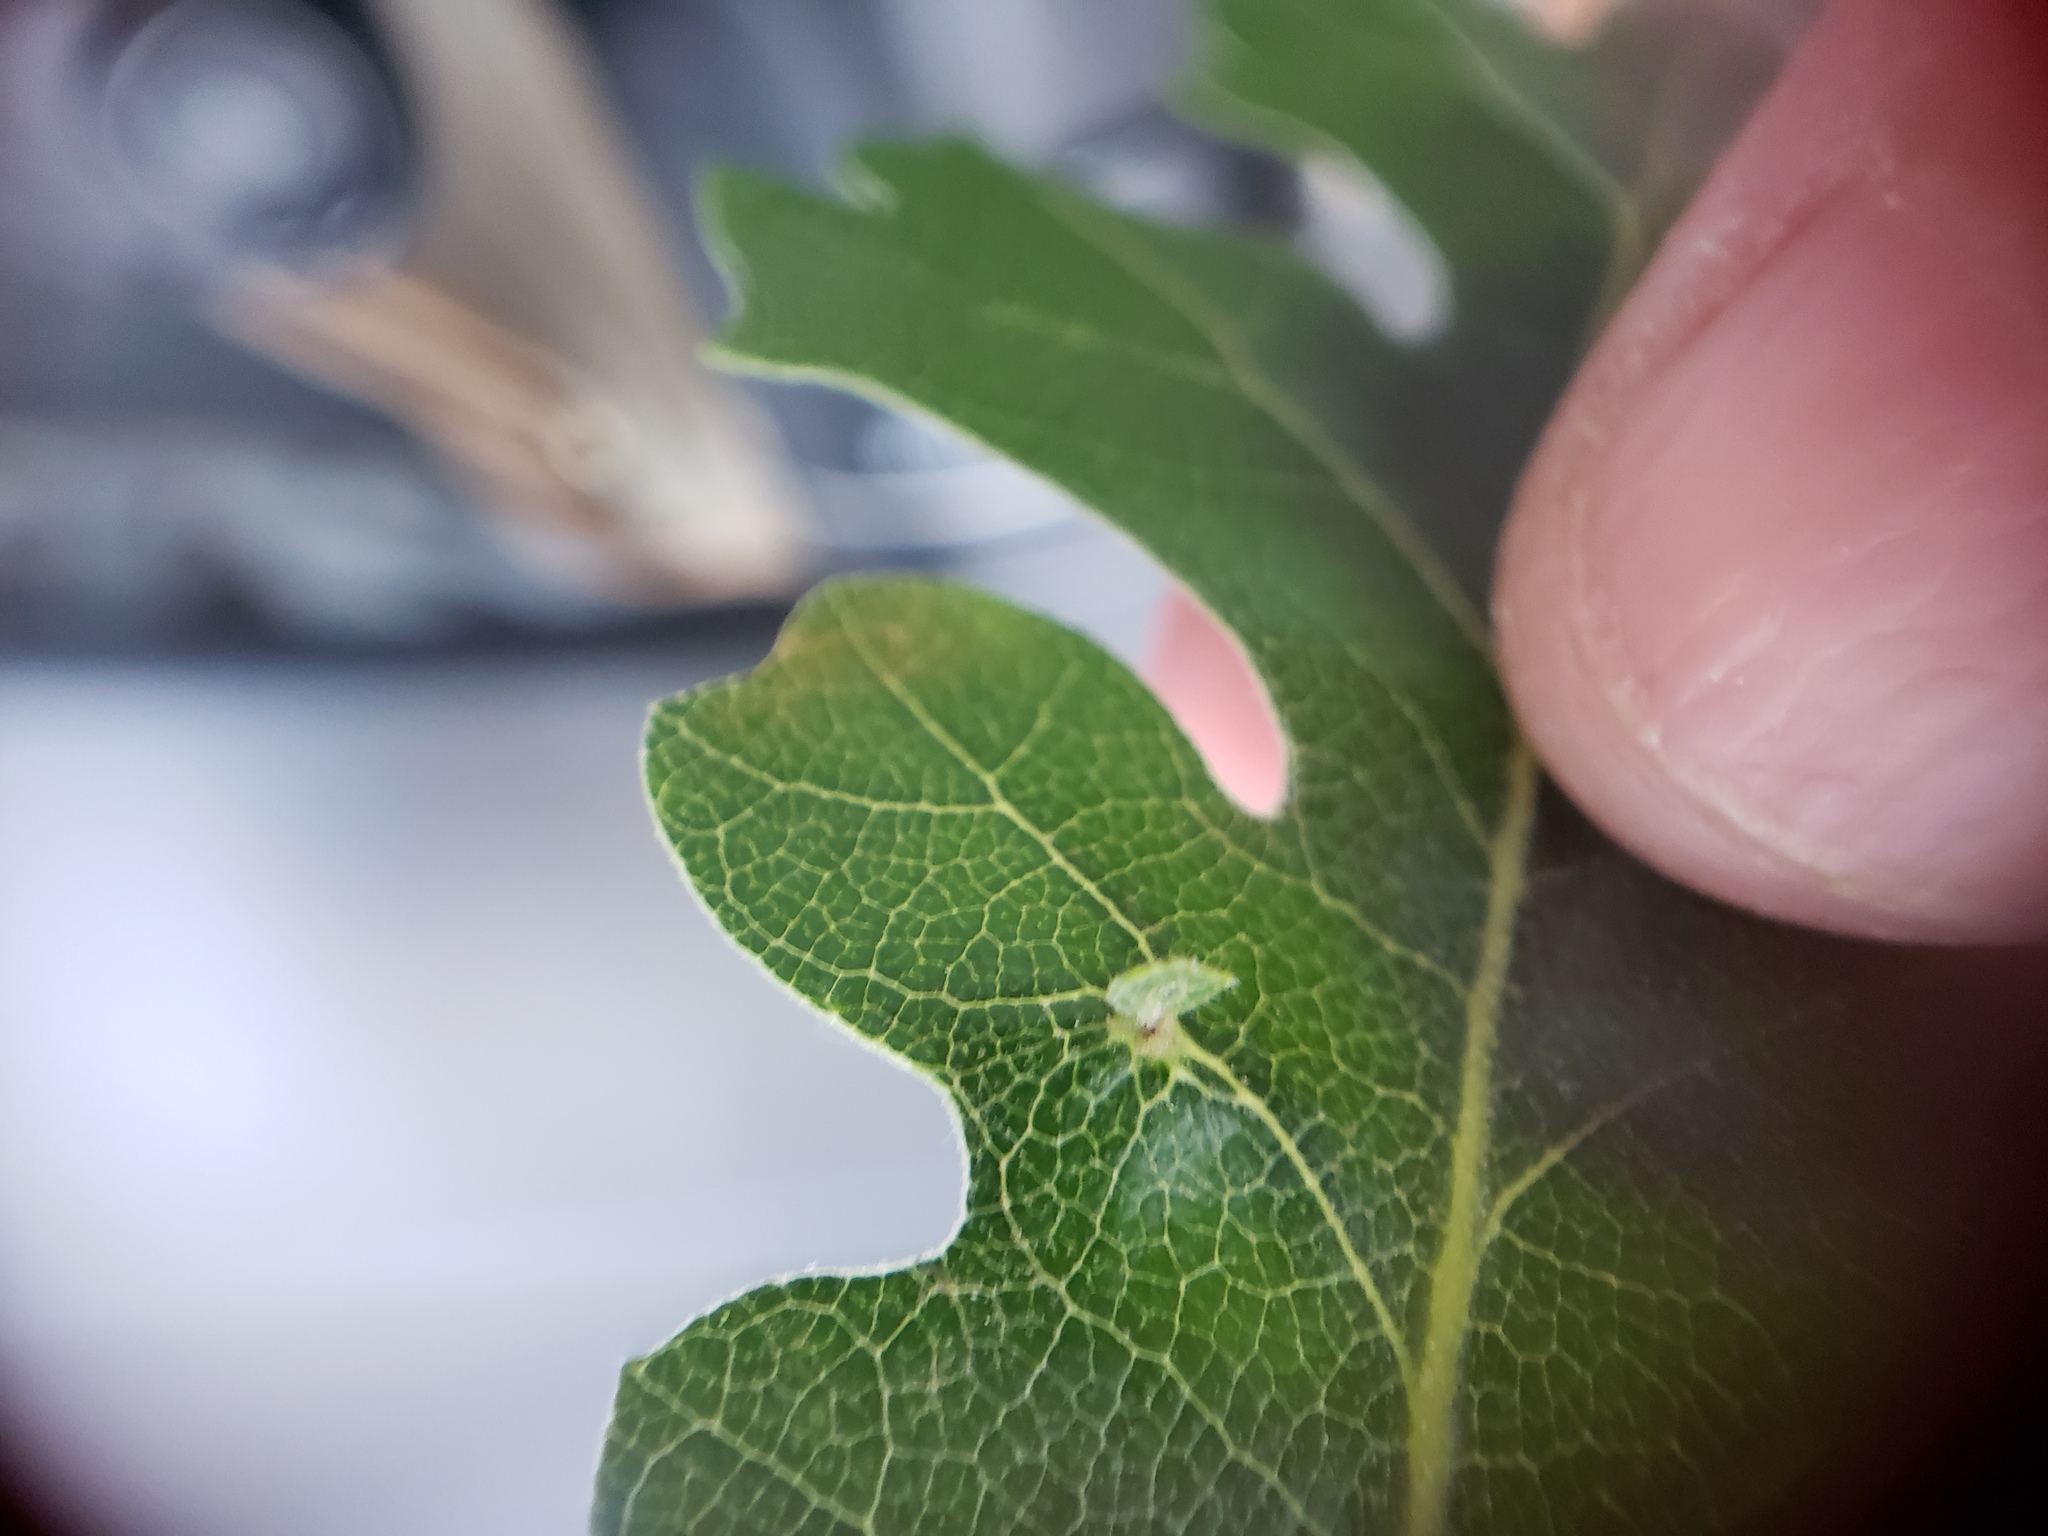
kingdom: Animalia
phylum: Arthropoda
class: Insecta
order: Hymenoptera
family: Cynipidae
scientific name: Cynipidae
